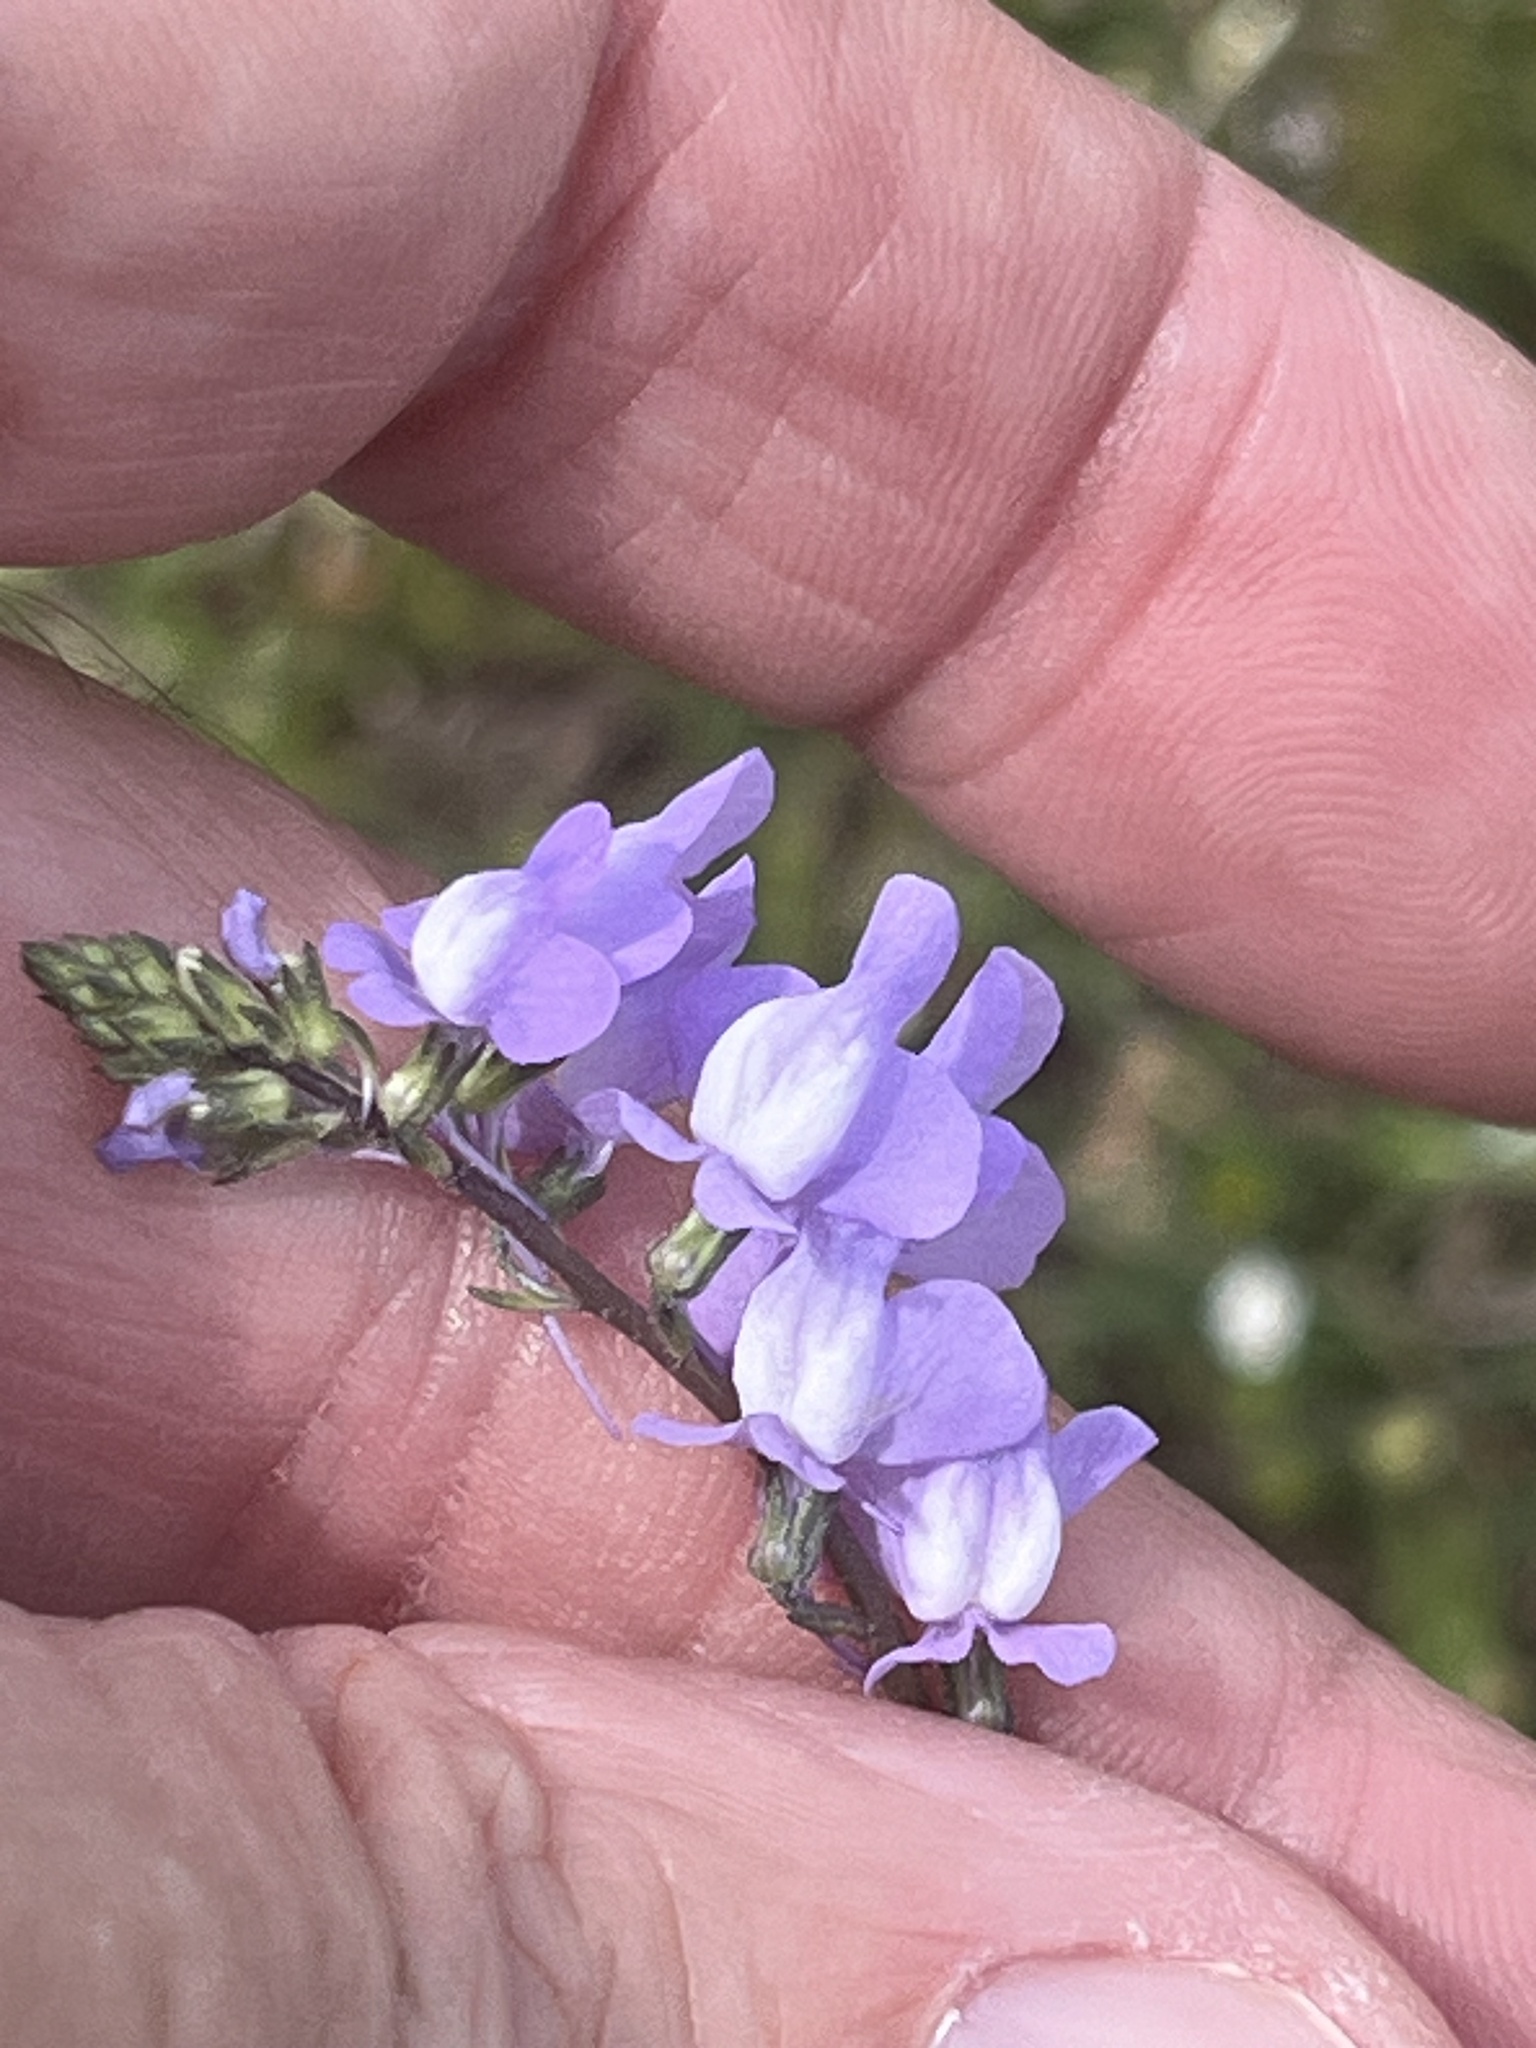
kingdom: Plantae
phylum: Tracheophyta
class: Magnoliopsida
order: Lamiales
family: Plantaginaceae
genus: Nuttallanthus
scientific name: Nuttallanthus canadensis
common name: Blue toadflax
